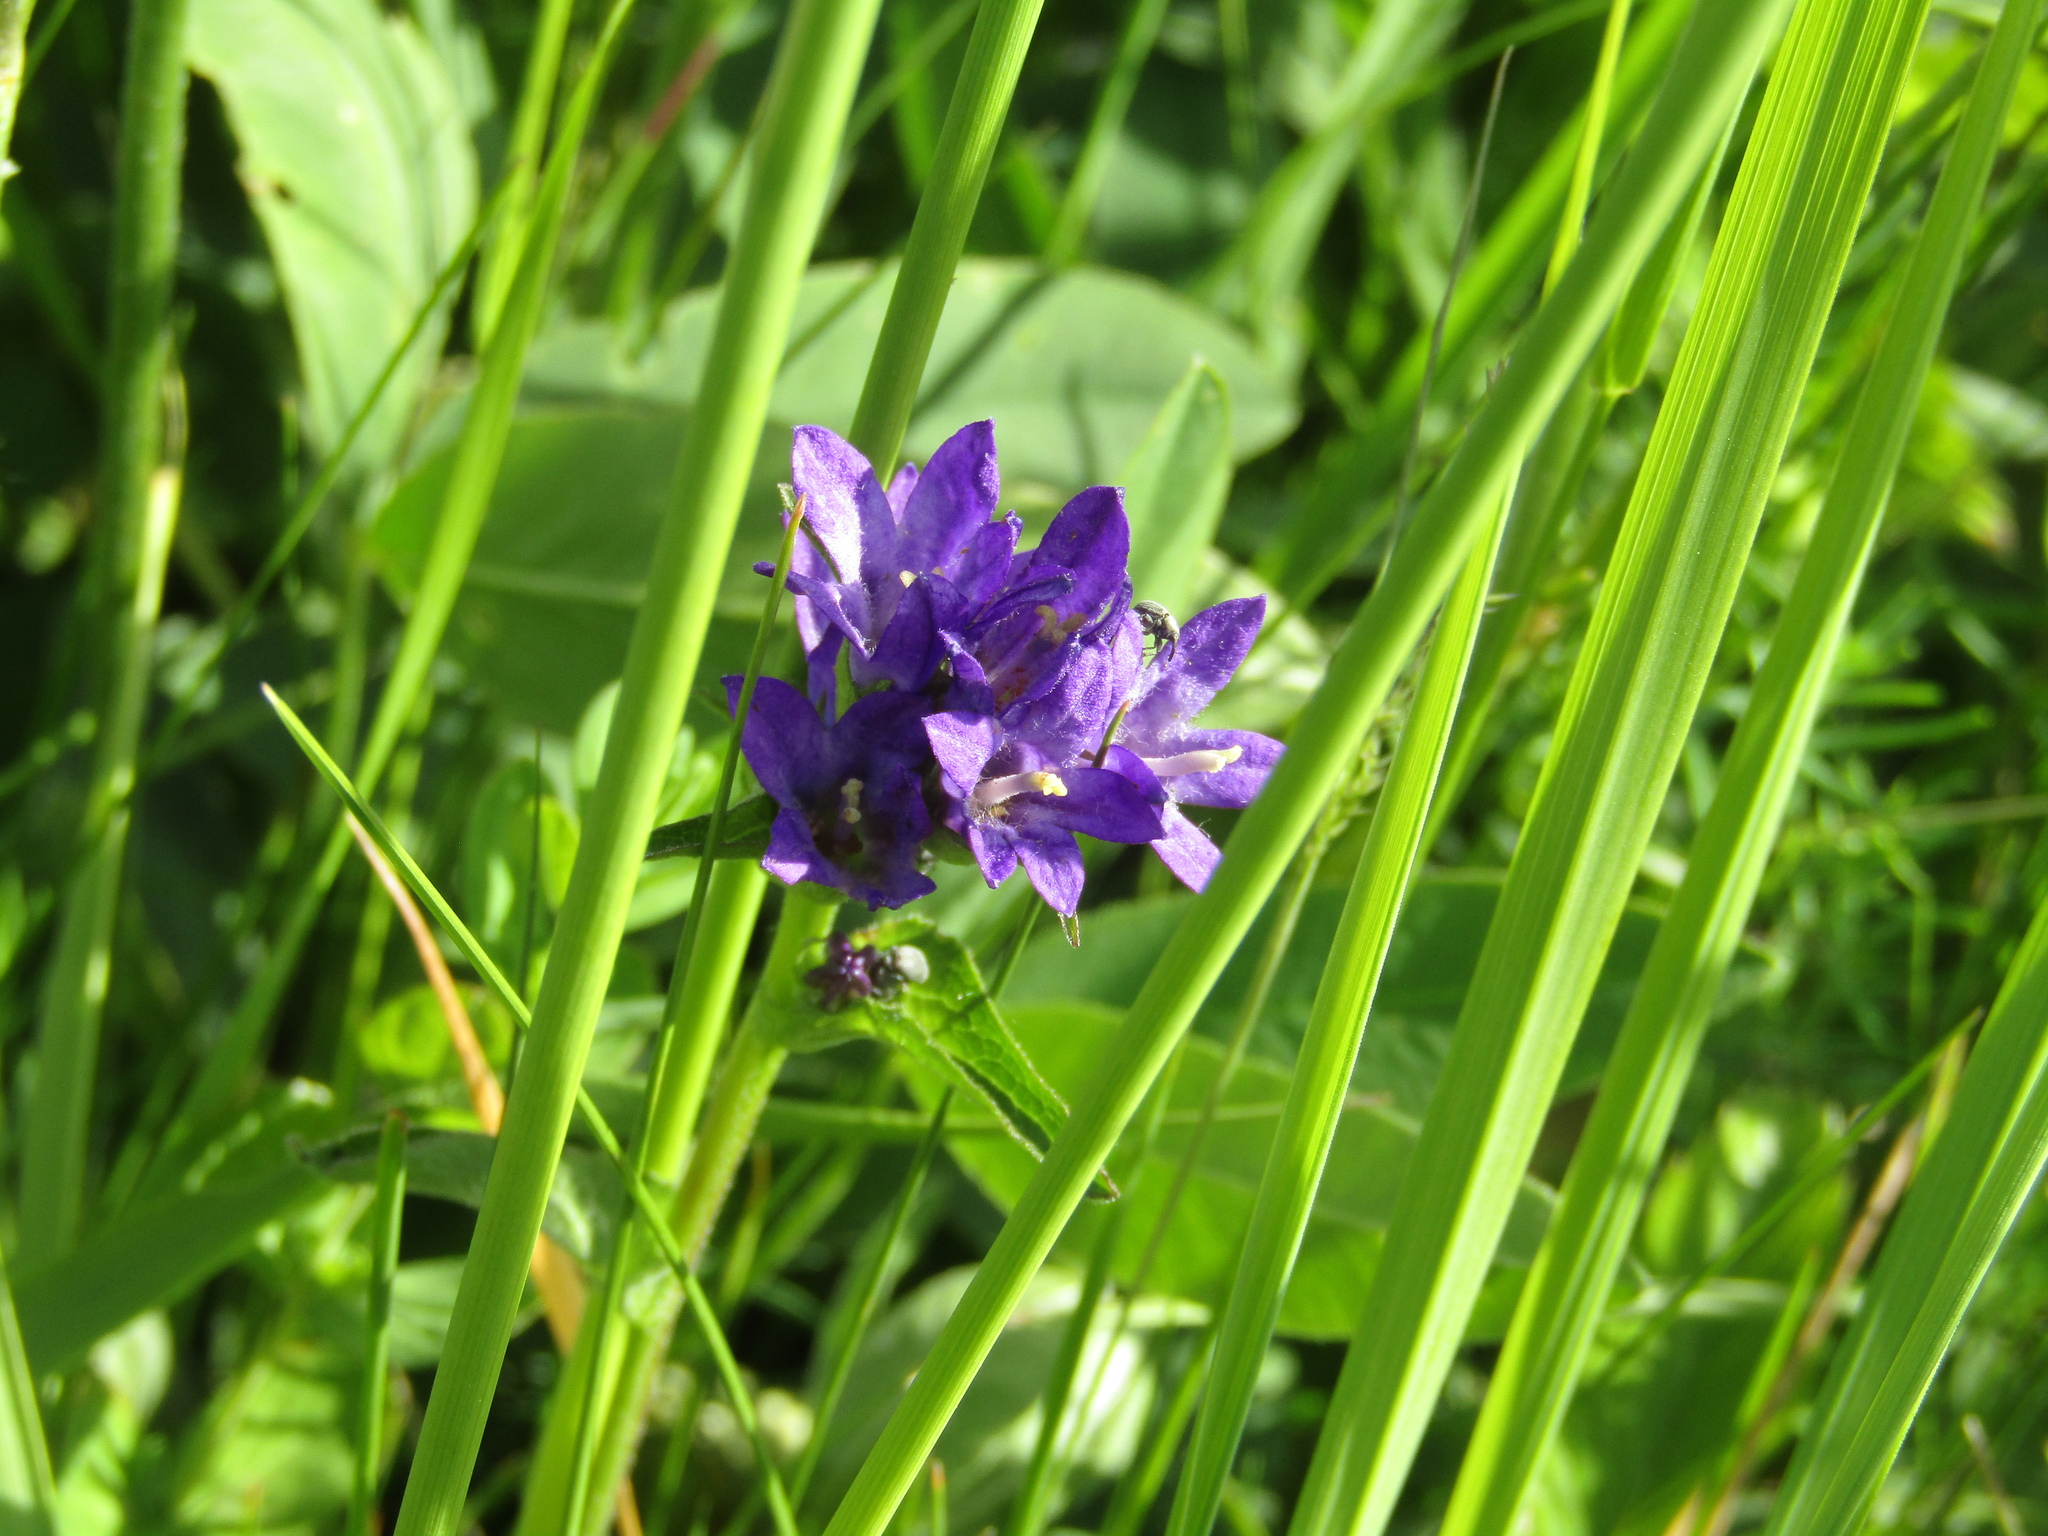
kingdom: Plantae
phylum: Tracheophyta
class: Magnoliopsida
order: Asterales
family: Campanulaceae
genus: Campanula
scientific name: Campanula glomerata
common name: Clustered bellflower
